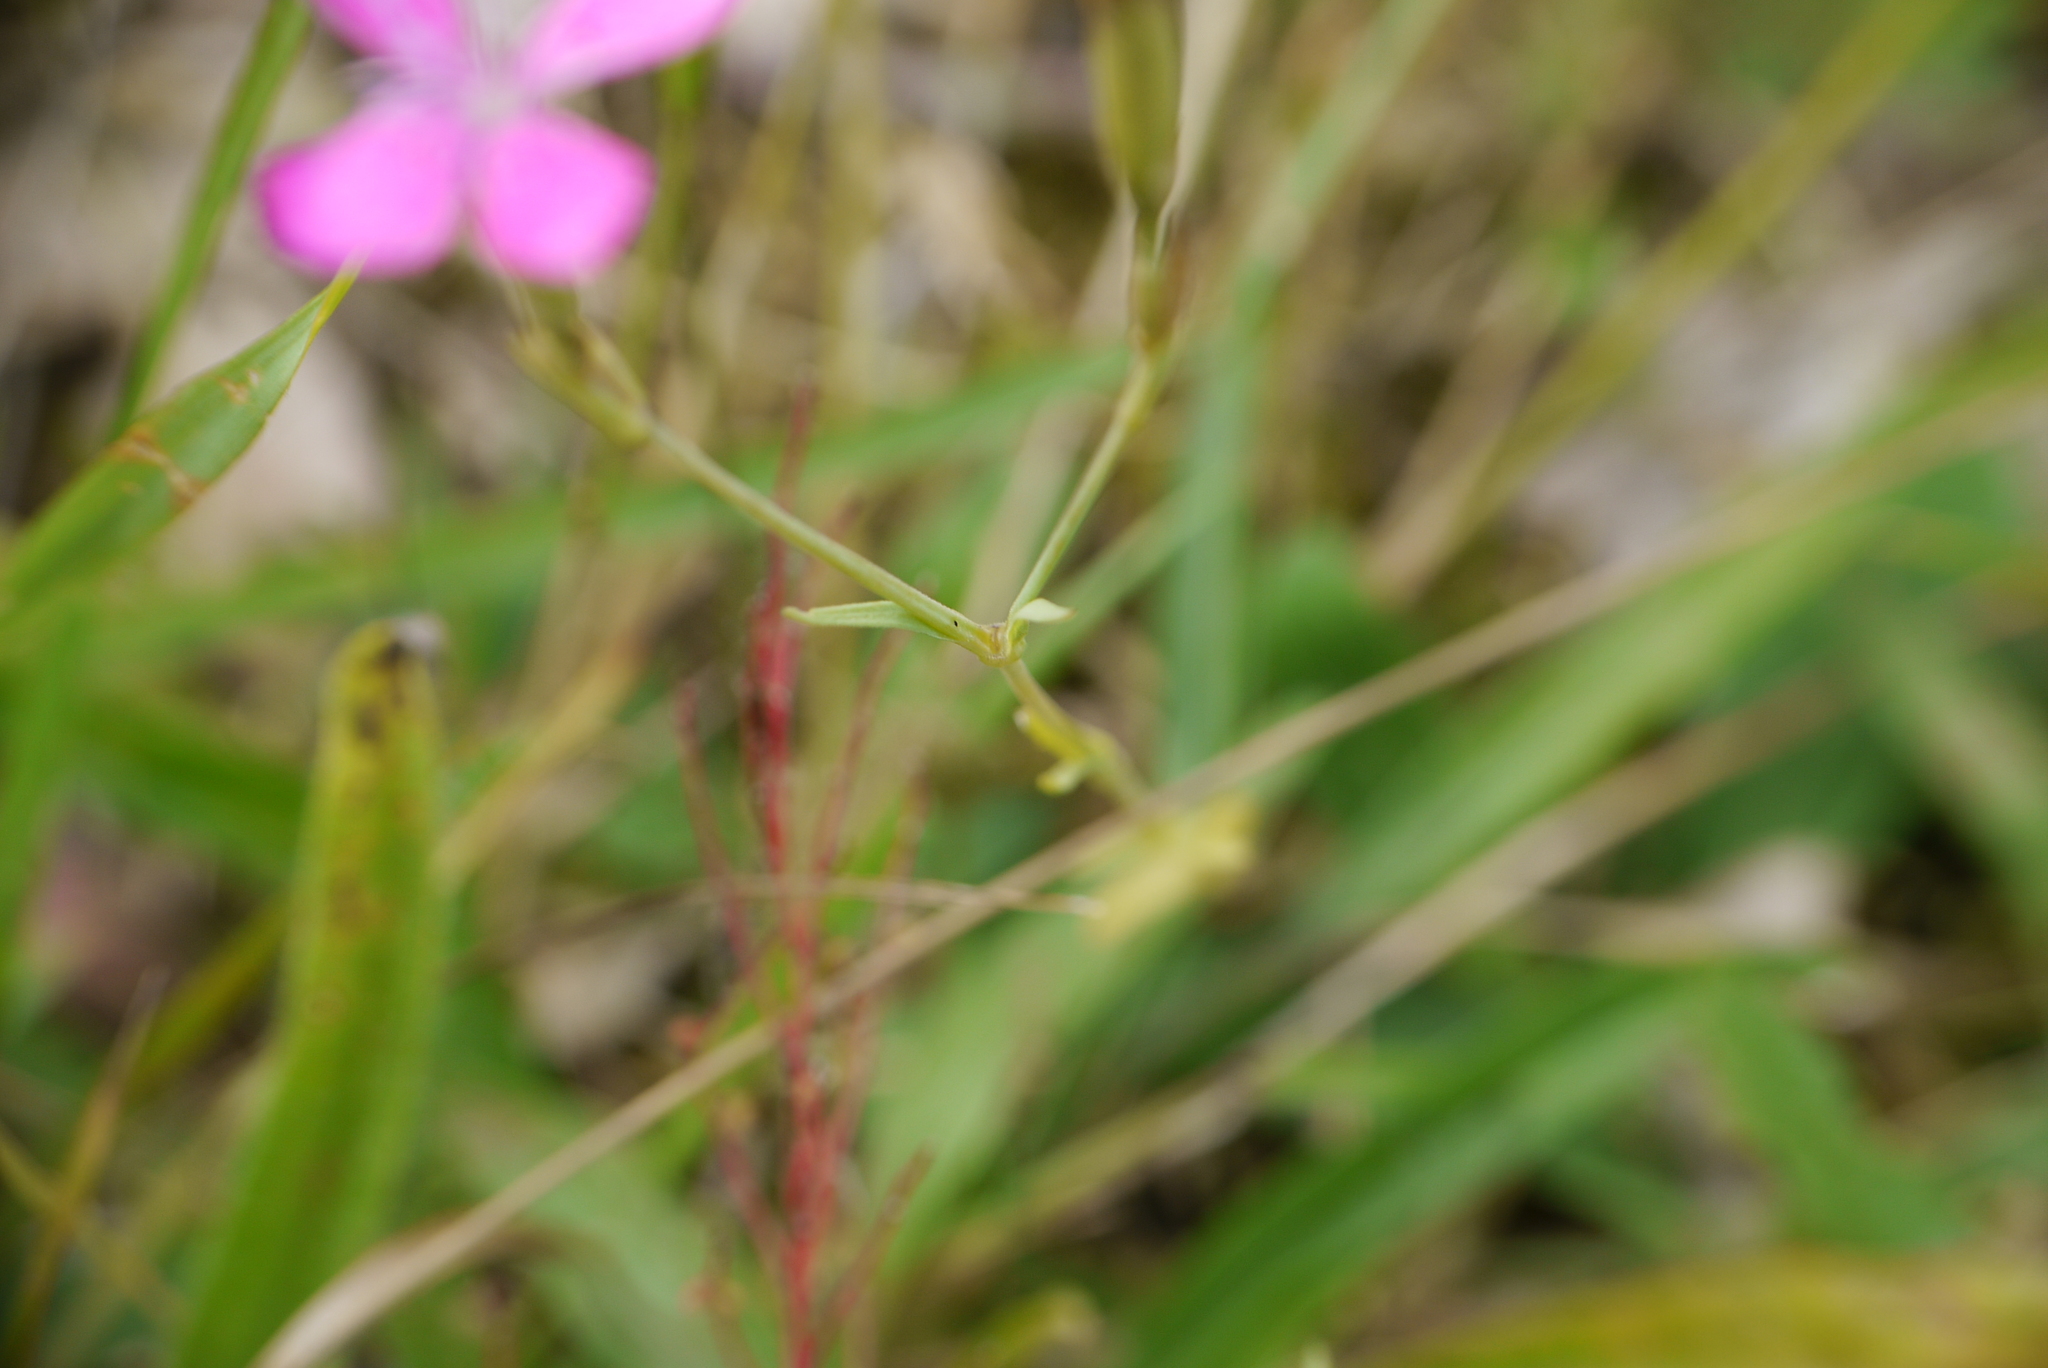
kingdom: Plantae
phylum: Tracheophyta
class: Magnoliopsida
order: Caryophyllales
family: Caryophyllaceae
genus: Dianthus
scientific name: Dianthus deltoides
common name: Maiden pink
